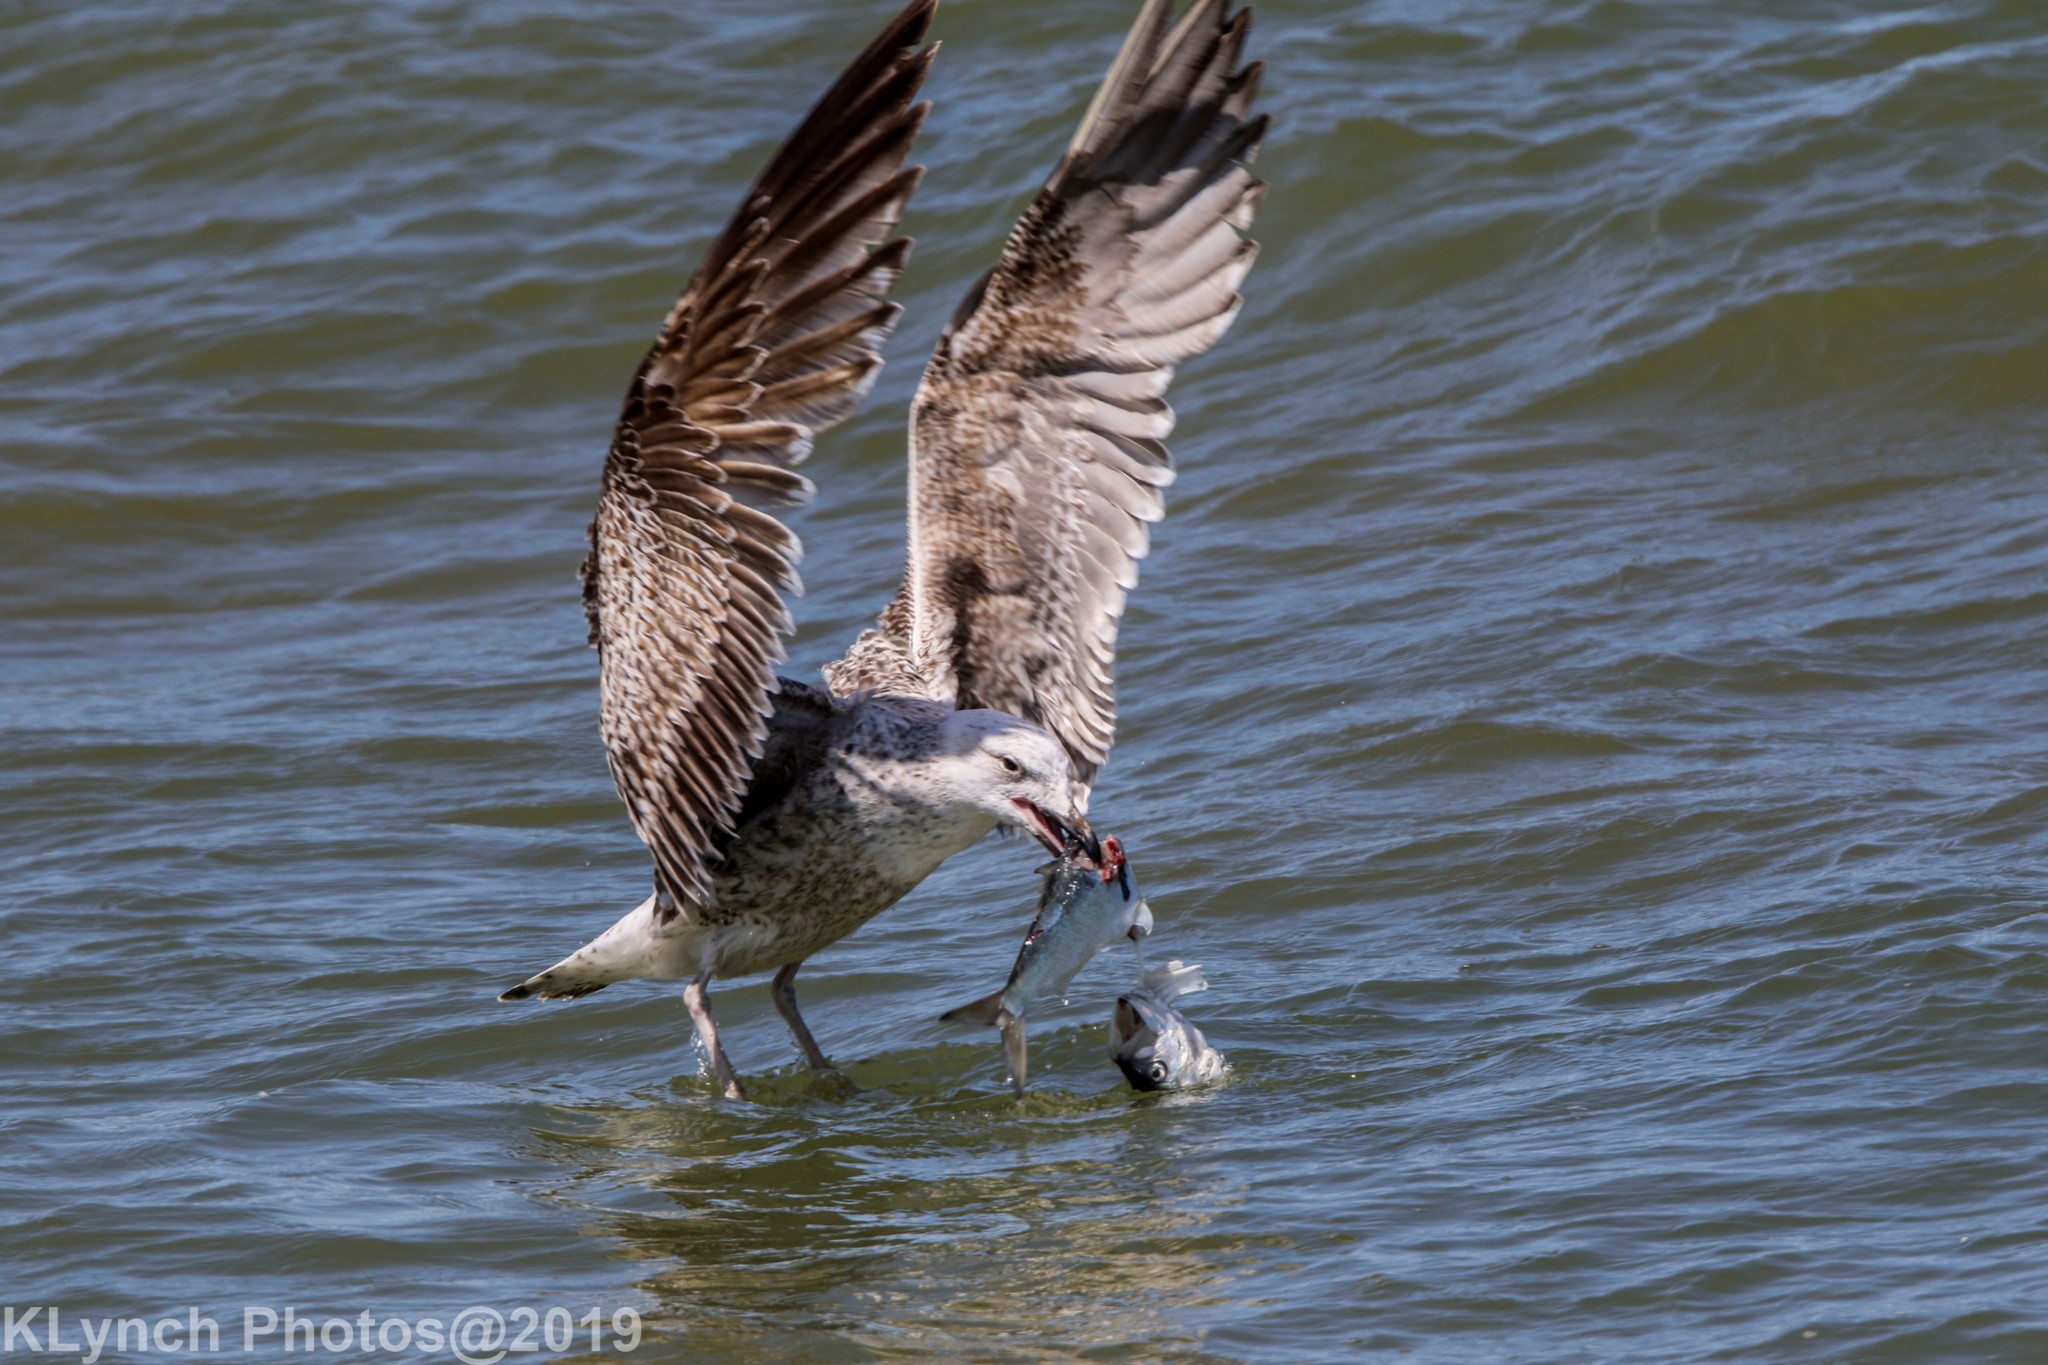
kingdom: Animalia
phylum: Chordata
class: Aves
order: Charadriiformes
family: Laridae
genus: Larus
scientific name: Larus argentatus
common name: Herring gull
